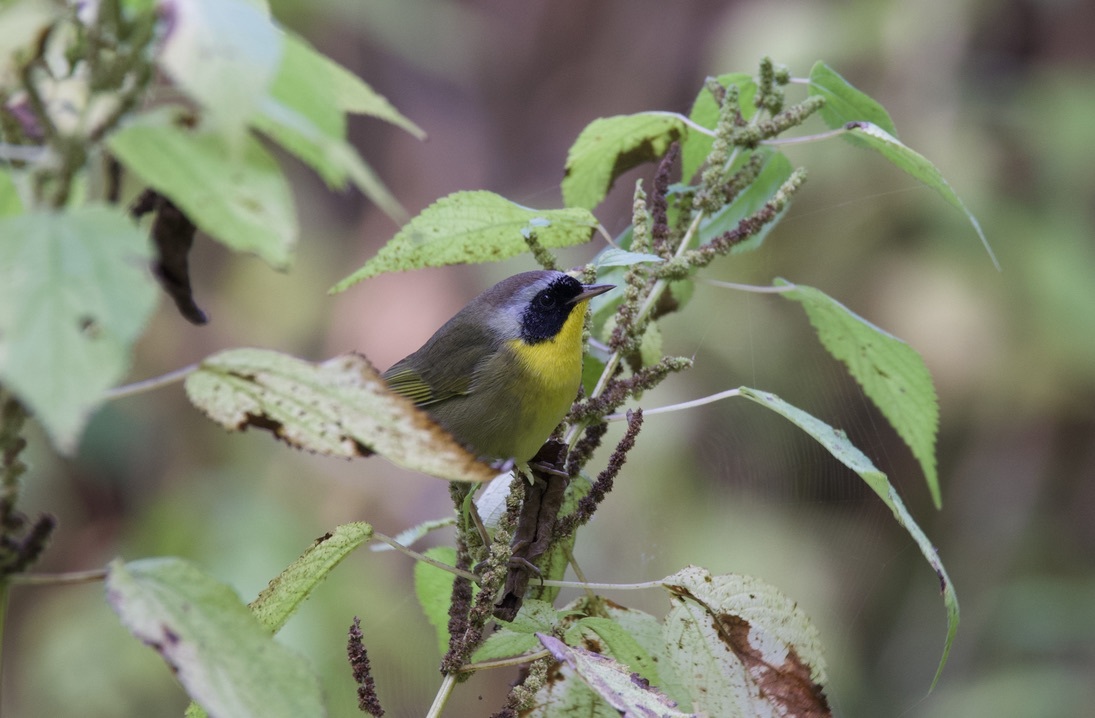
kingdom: Animalia
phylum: Chordata
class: Aves
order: Passeriformes
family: Parulidae
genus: Geothlypis
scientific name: Geothlypis trichas
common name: Common yellowthroat
